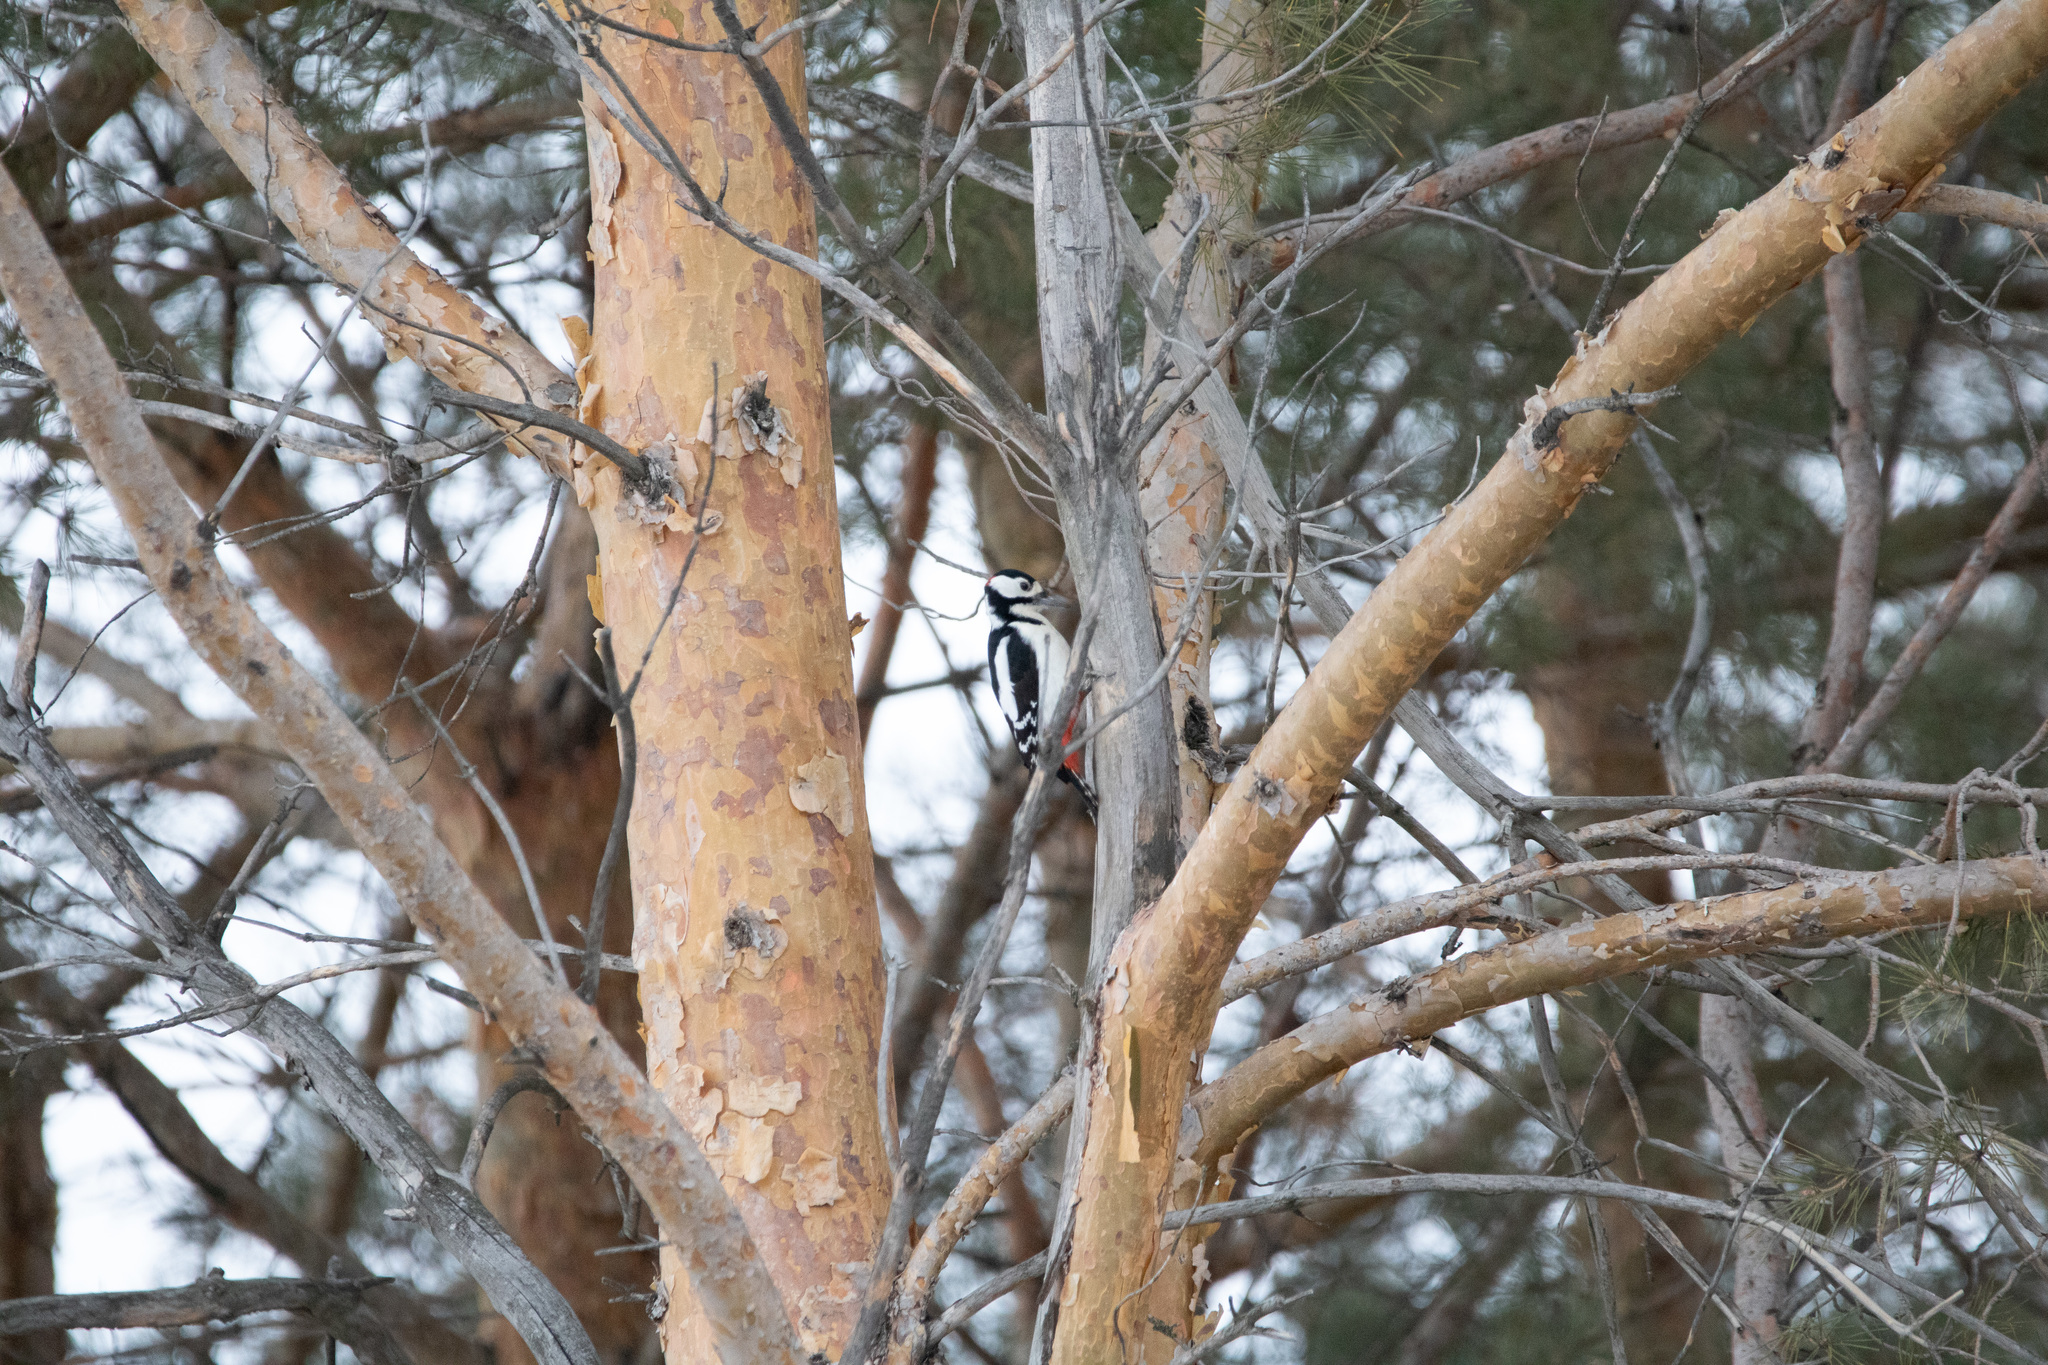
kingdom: Animalia
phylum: Chordata
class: Aves
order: Piciformes
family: Picidae
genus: Dendrocopos
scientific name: Dendrocopos major
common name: Great spotted woodpecker
